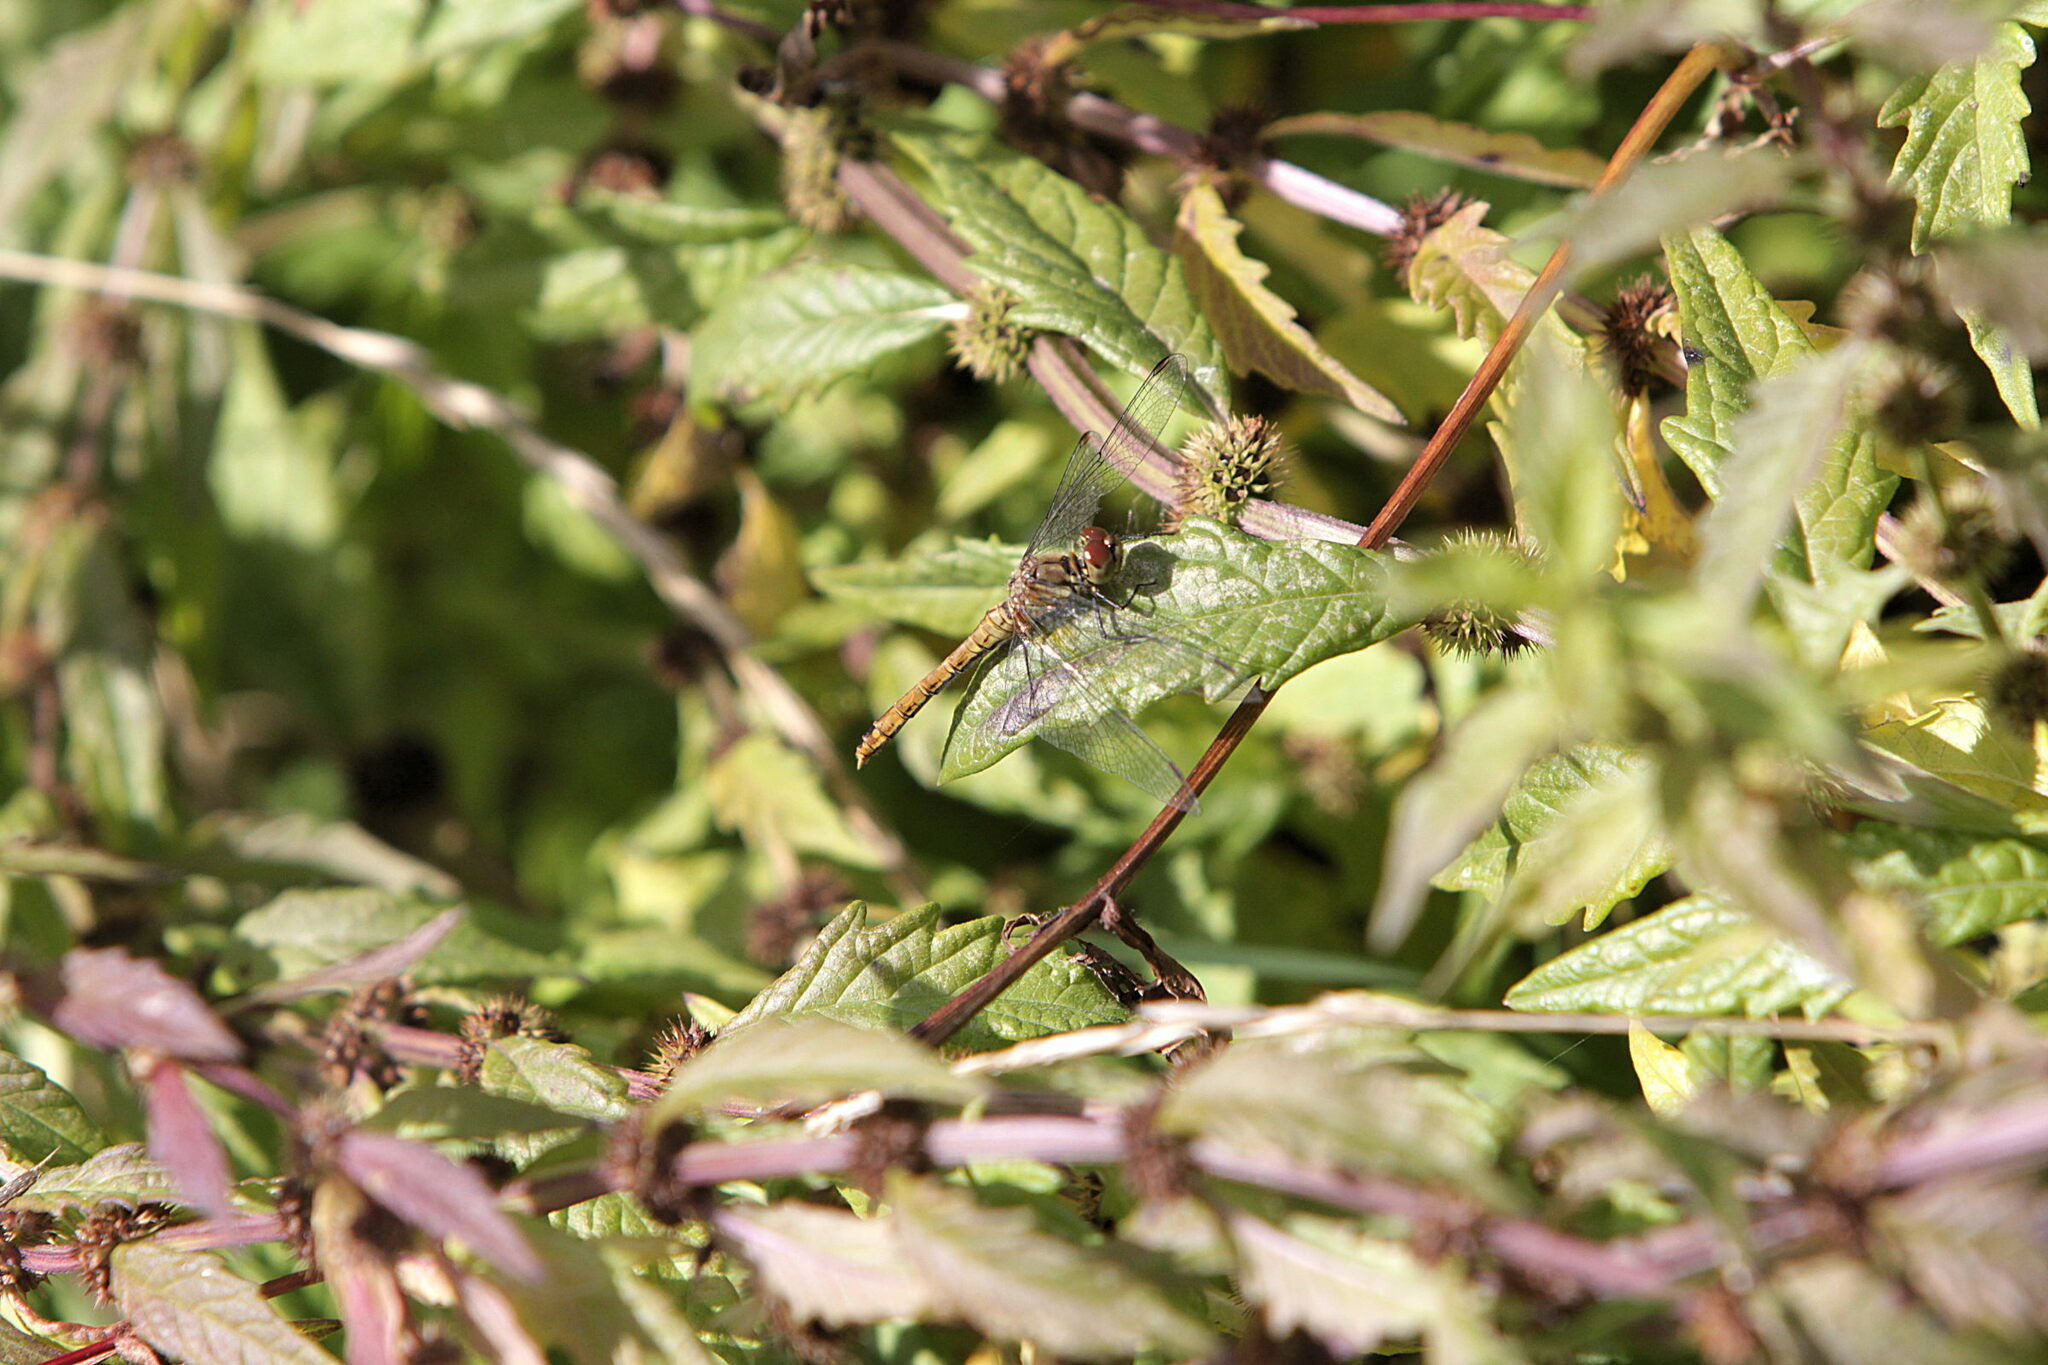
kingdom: Animalia
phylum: Arthropoda
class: Insecta
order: Odonata
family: Libellulidae
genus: Sympetrum
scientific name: Sympetrum sanguineum
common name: Ruddy darter
